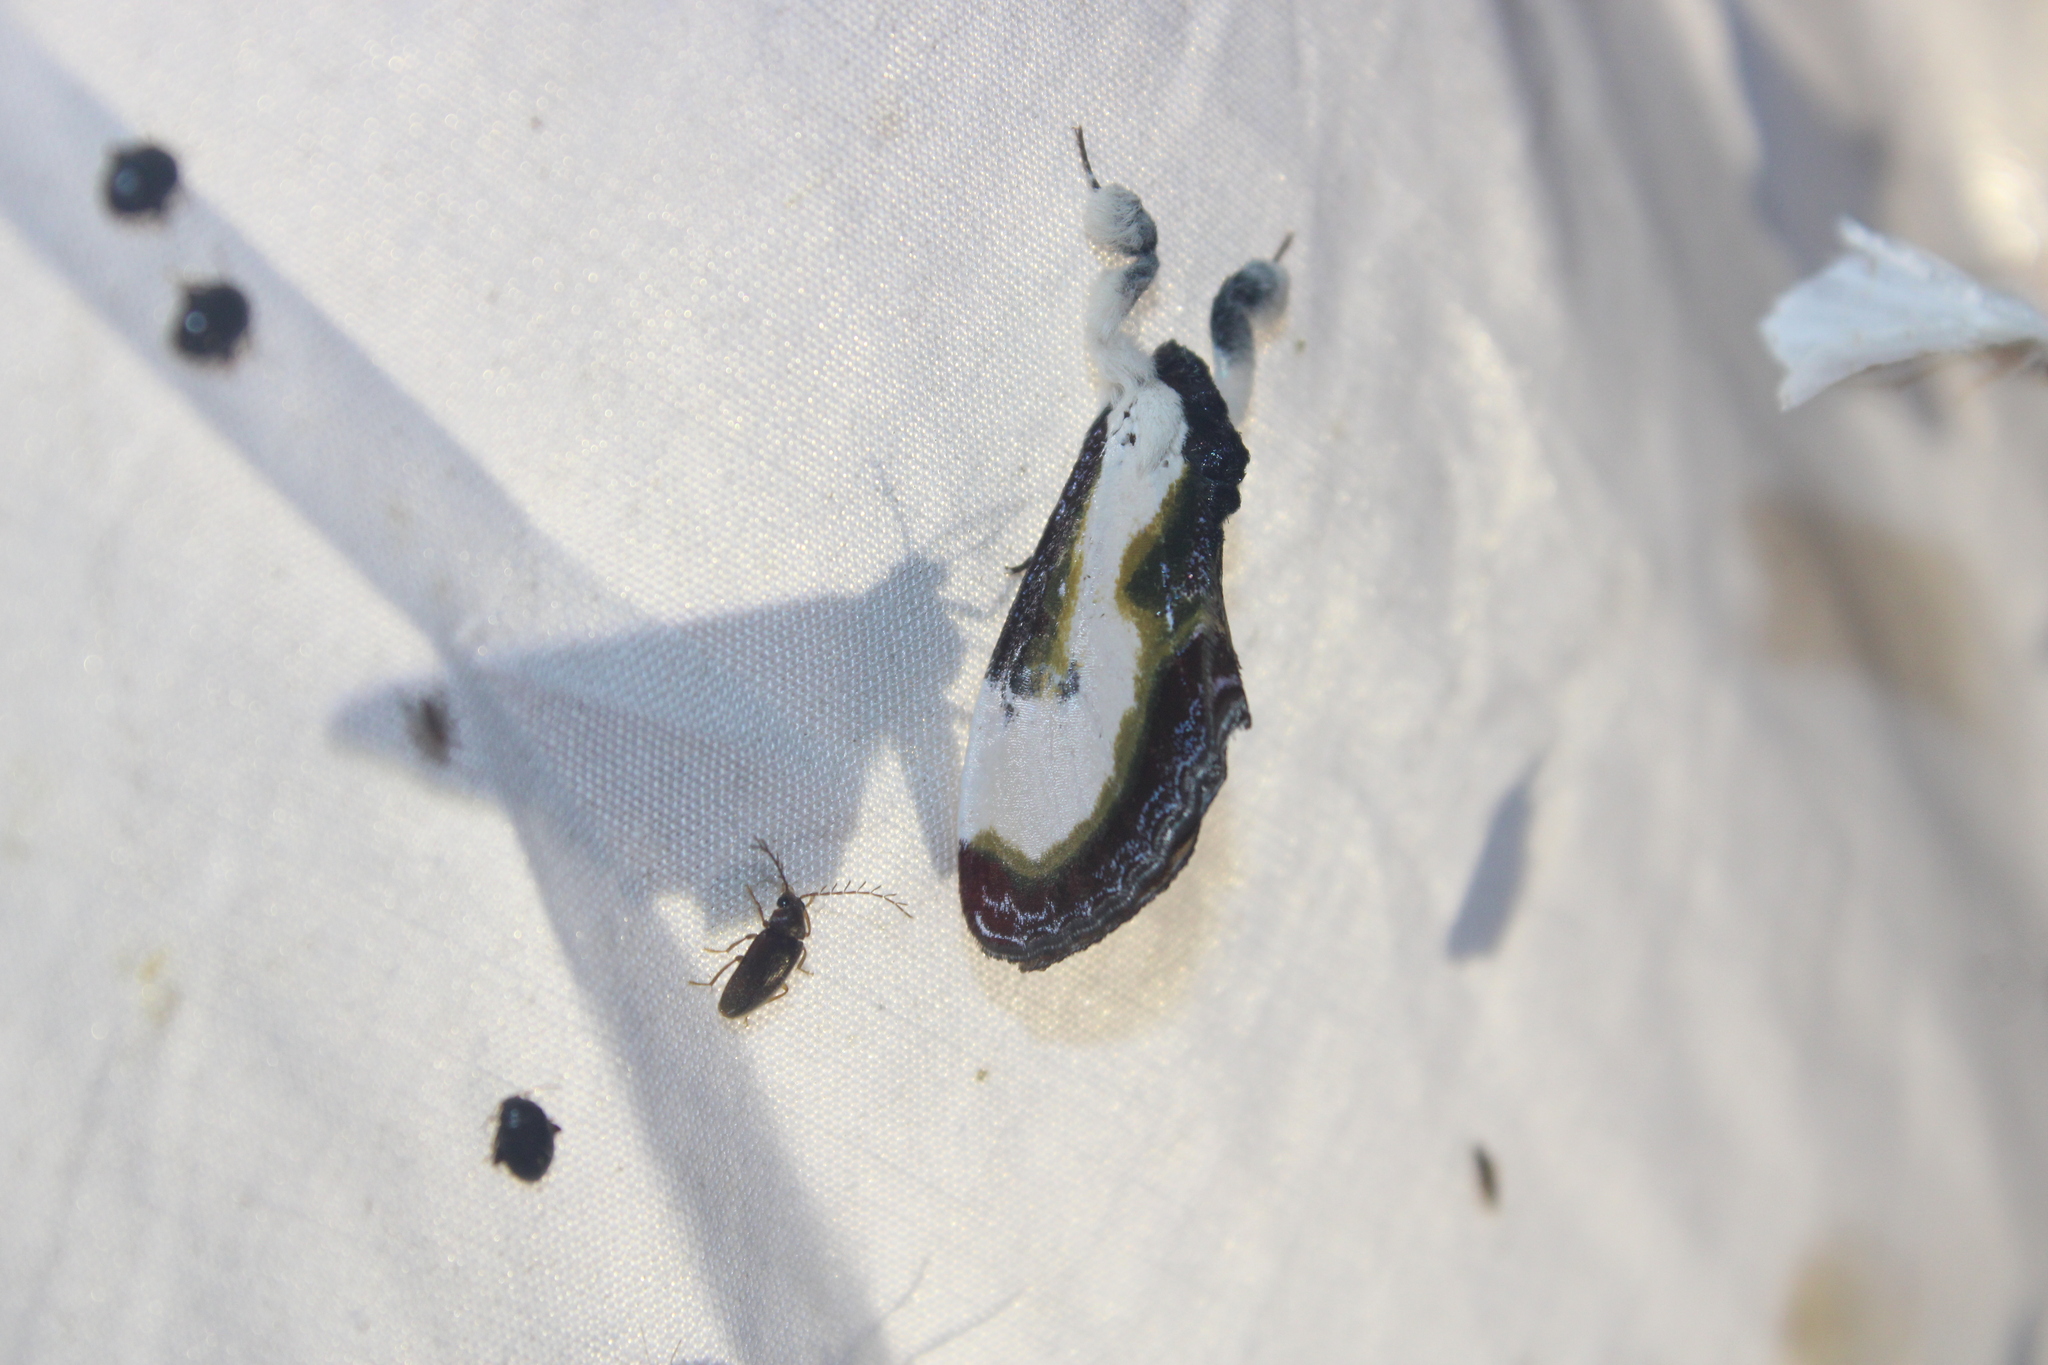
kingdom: Animalia
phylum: Arthropoda
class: Insecta
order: Lepidoptera
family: Noctuidae
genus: Eudryas
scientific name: Eudryas grata
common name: Beautiful wood-nymph
